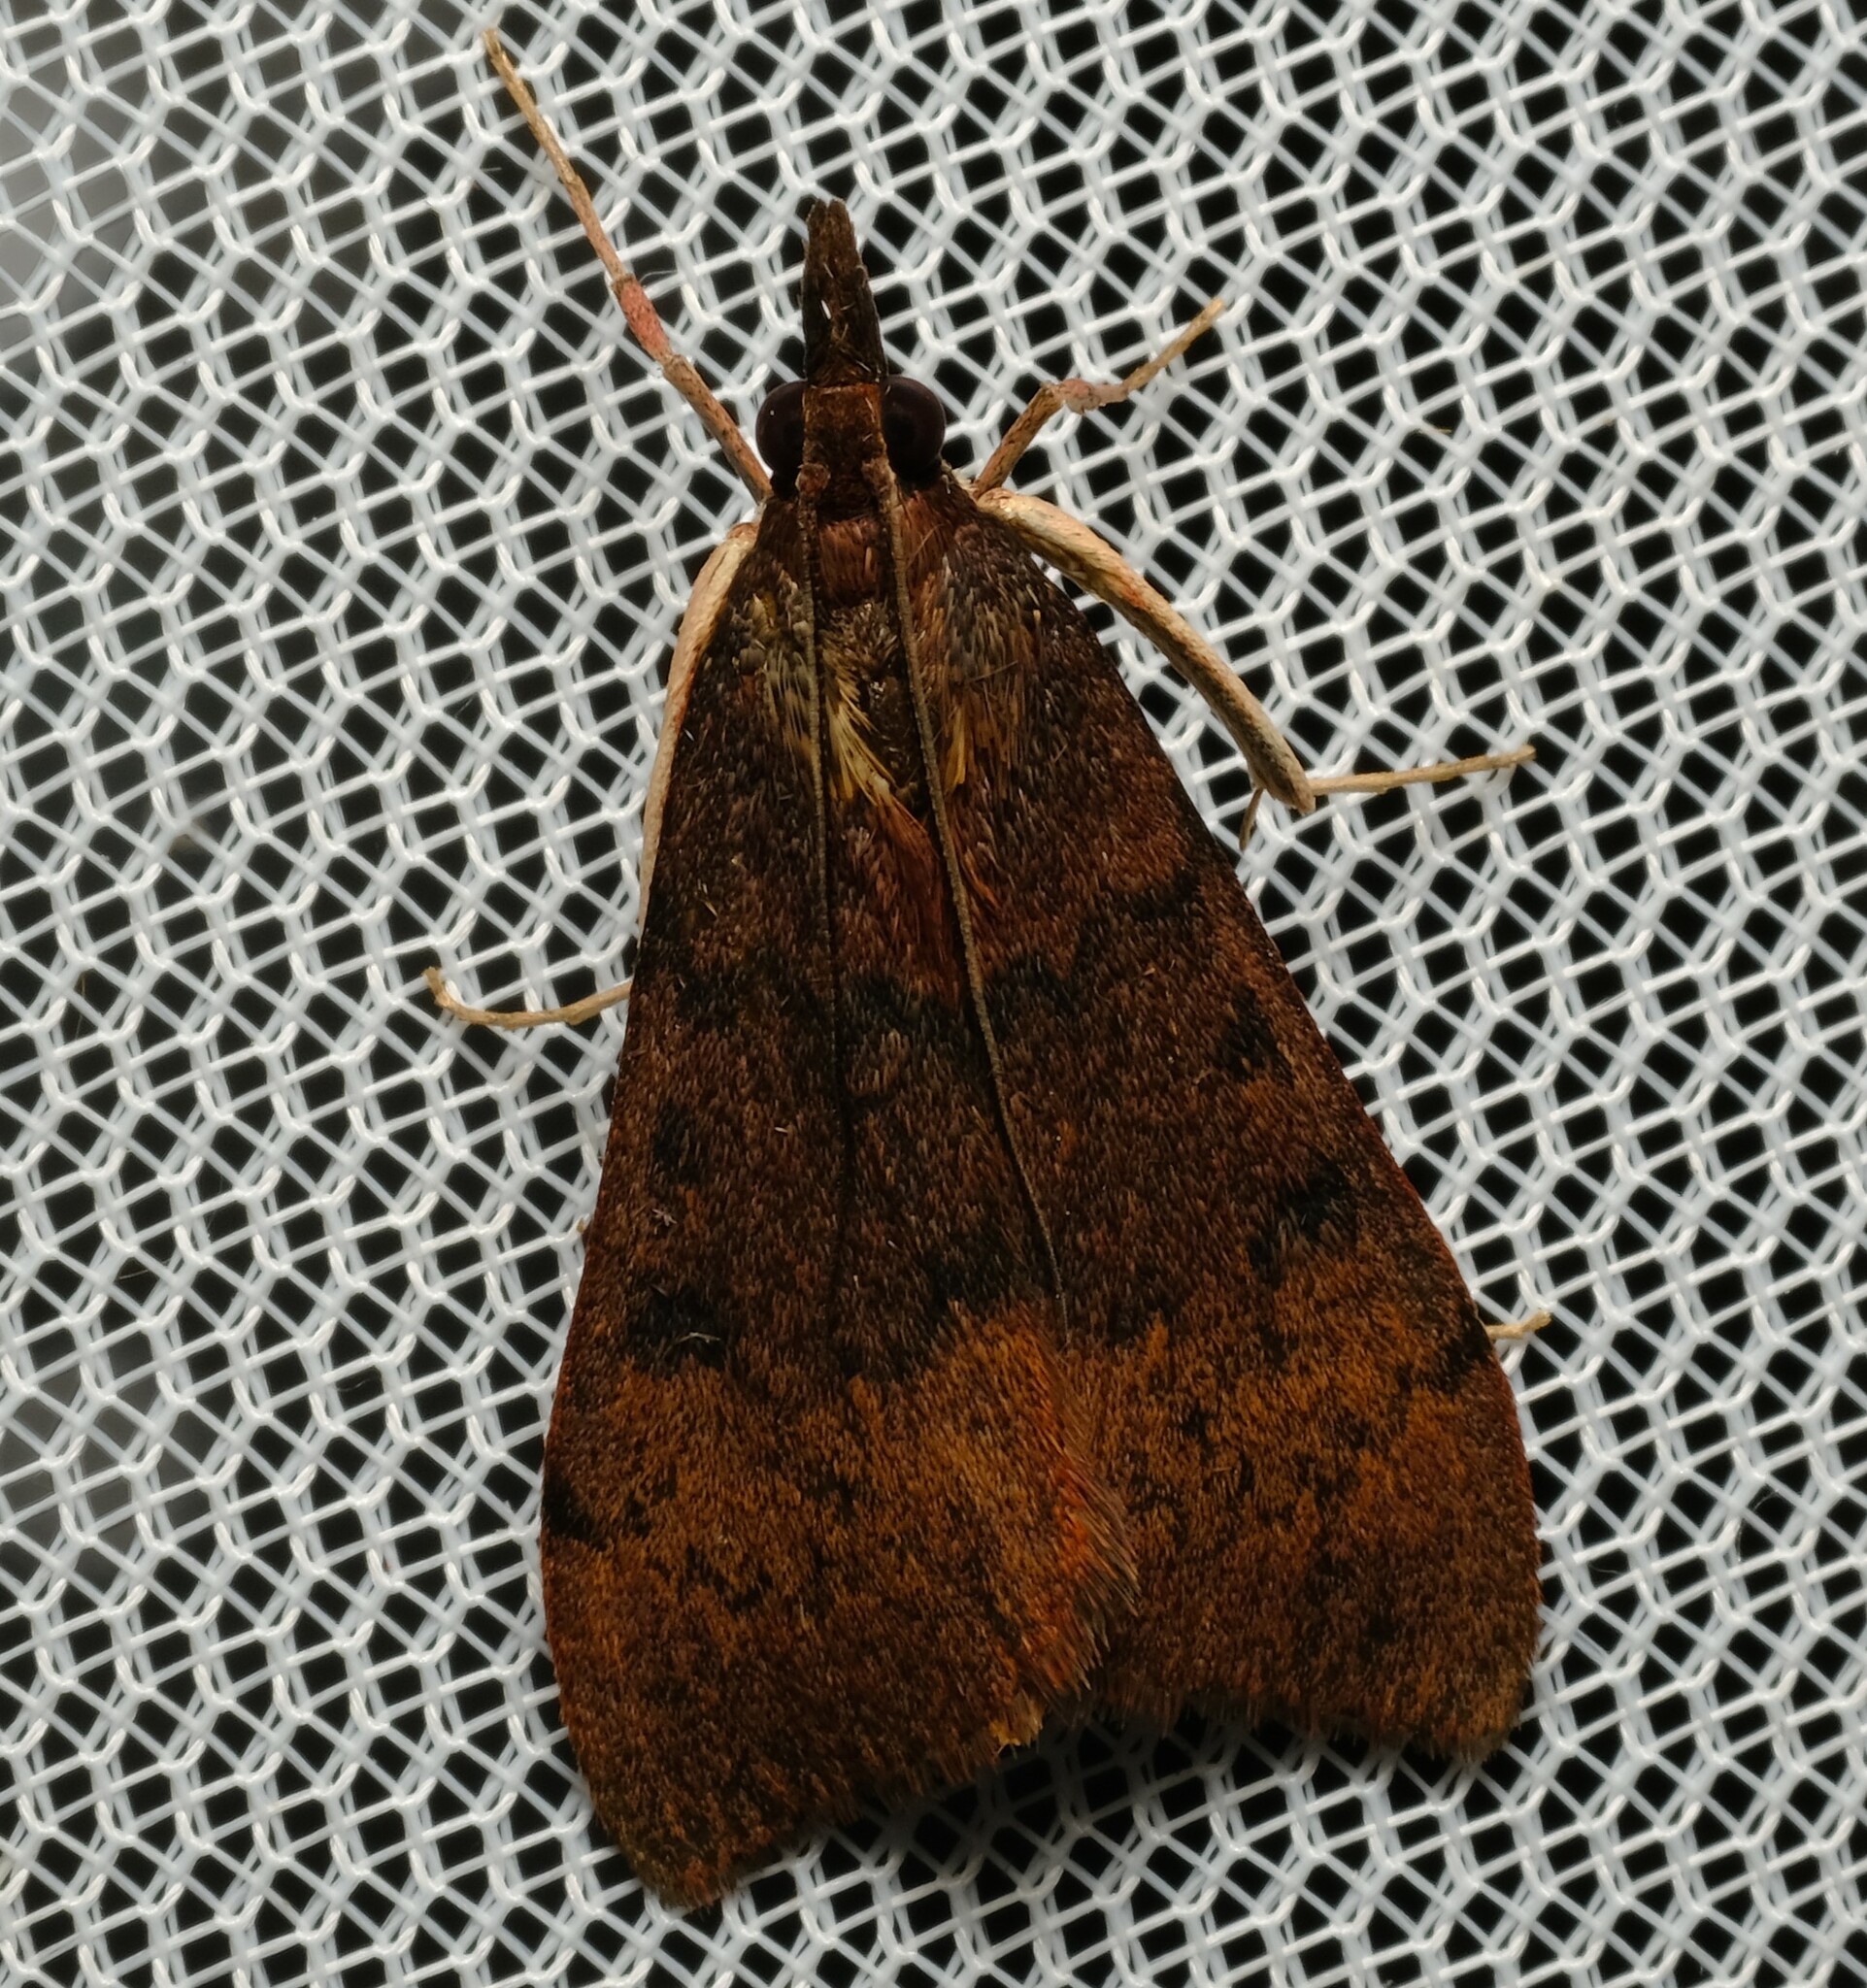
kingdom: Animalia
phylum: Arthropoda
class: Insecta
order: Lepidoptera
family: Crambidae
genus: Uresiphita
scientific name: Uresiphita ornithopteralis
